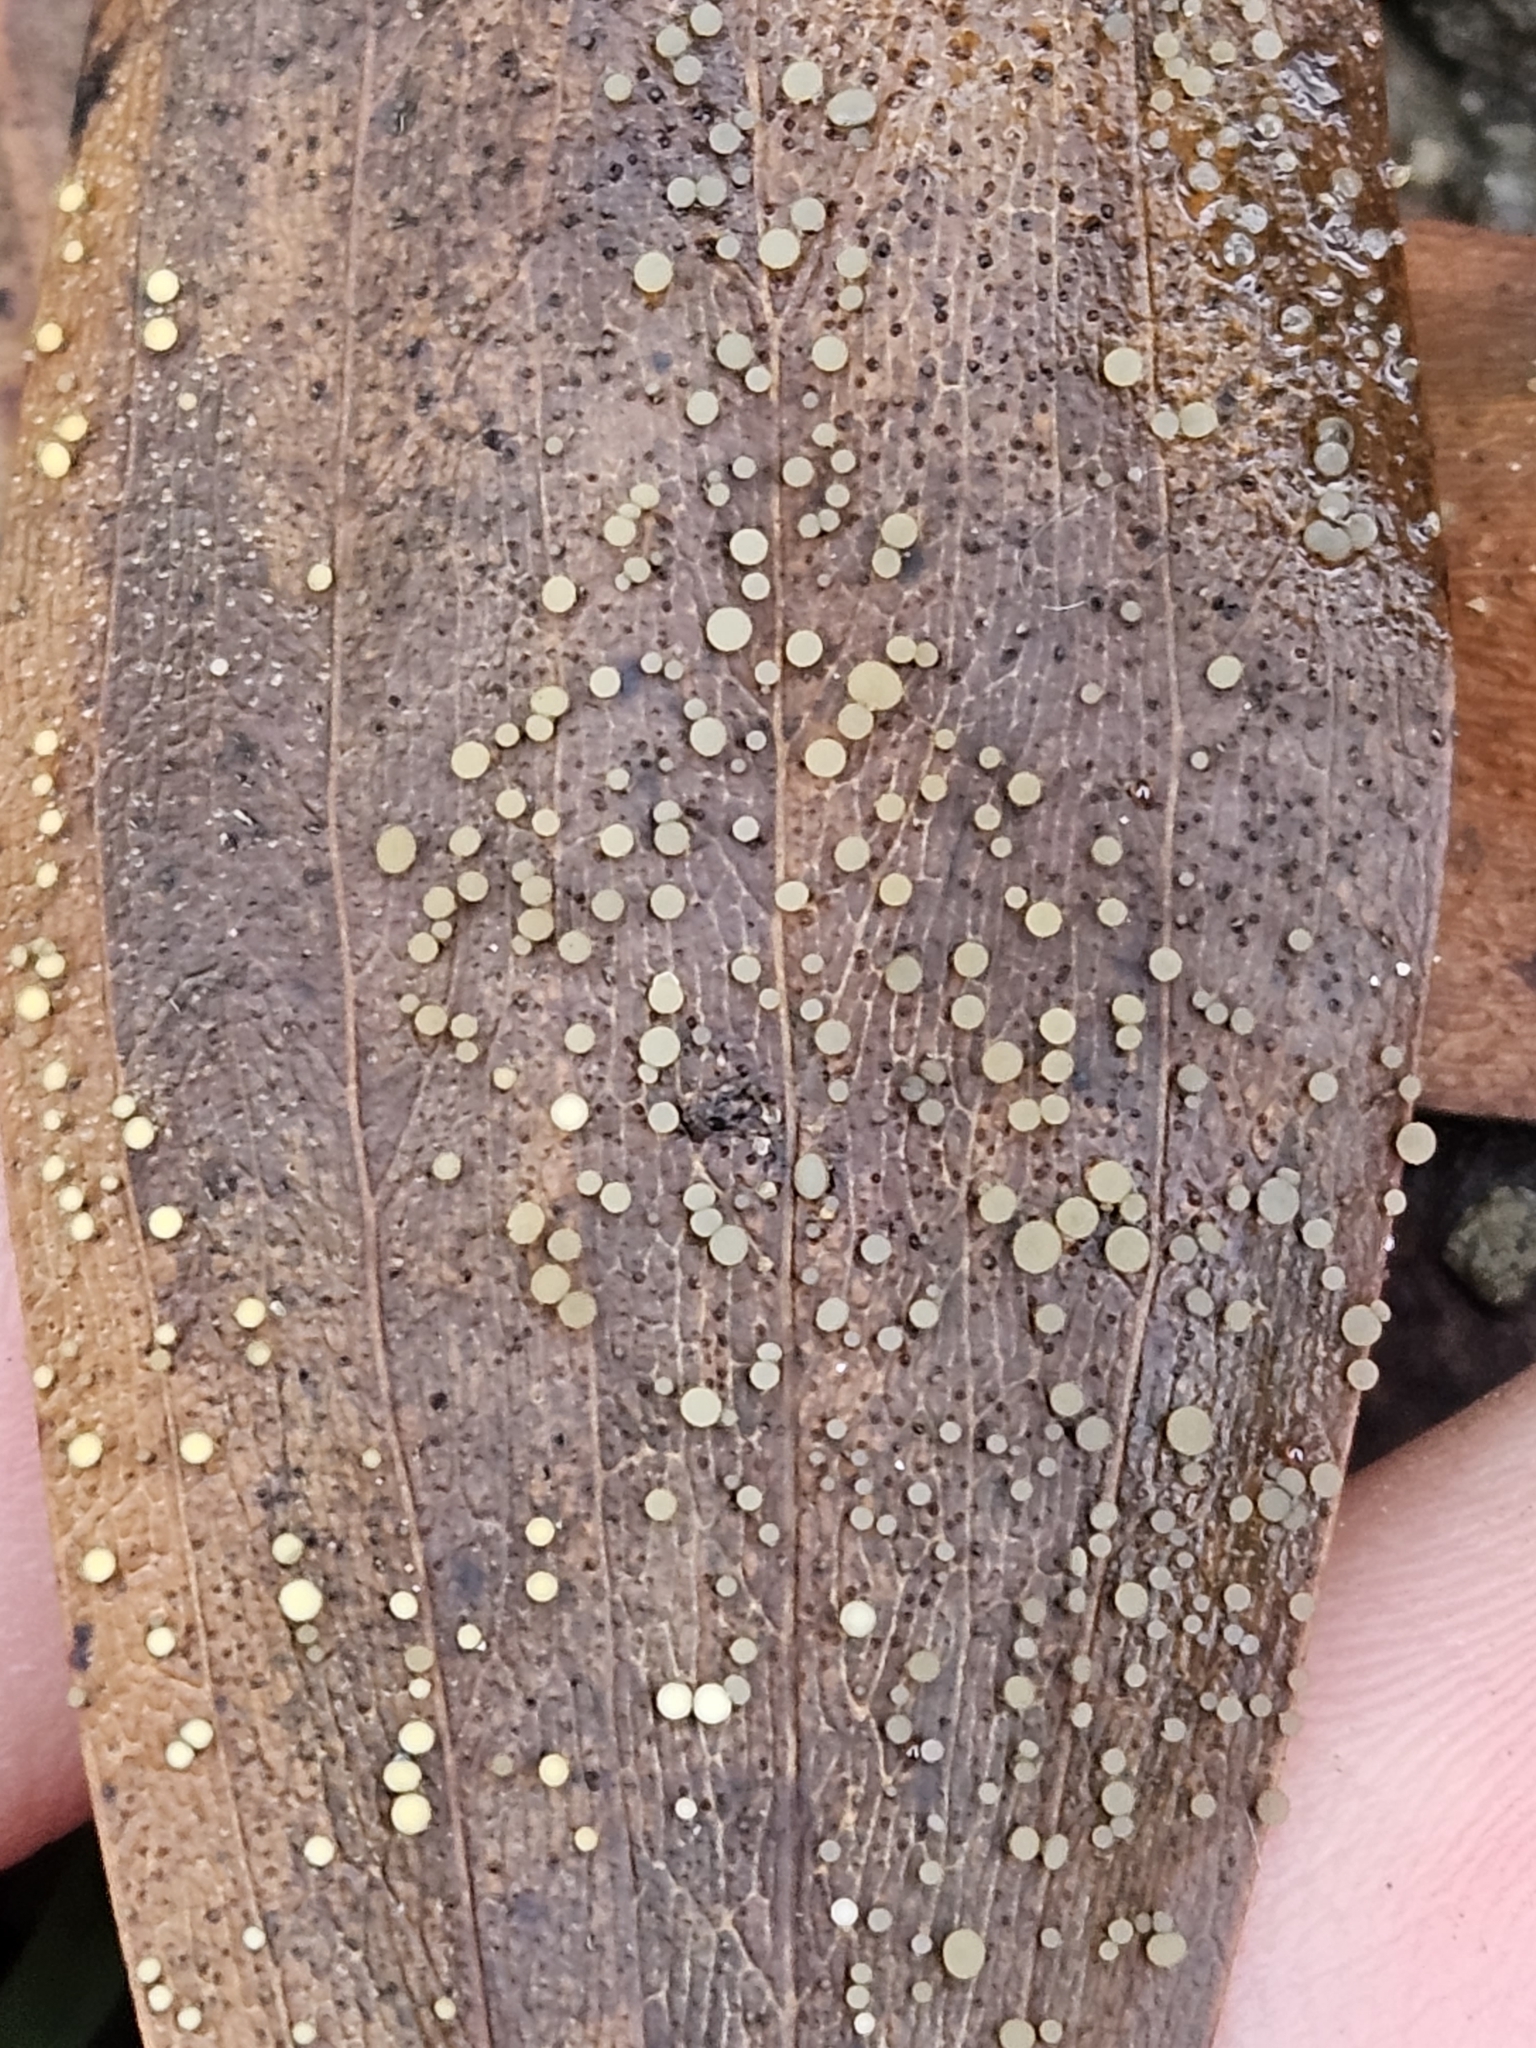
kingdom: Fungi
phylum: Ascomycota
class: Leotiomycetes
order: Helotiales
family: Helotiaceae
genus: Hymenotorrendiella
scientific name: Hymenotorrendiella eucalypti
